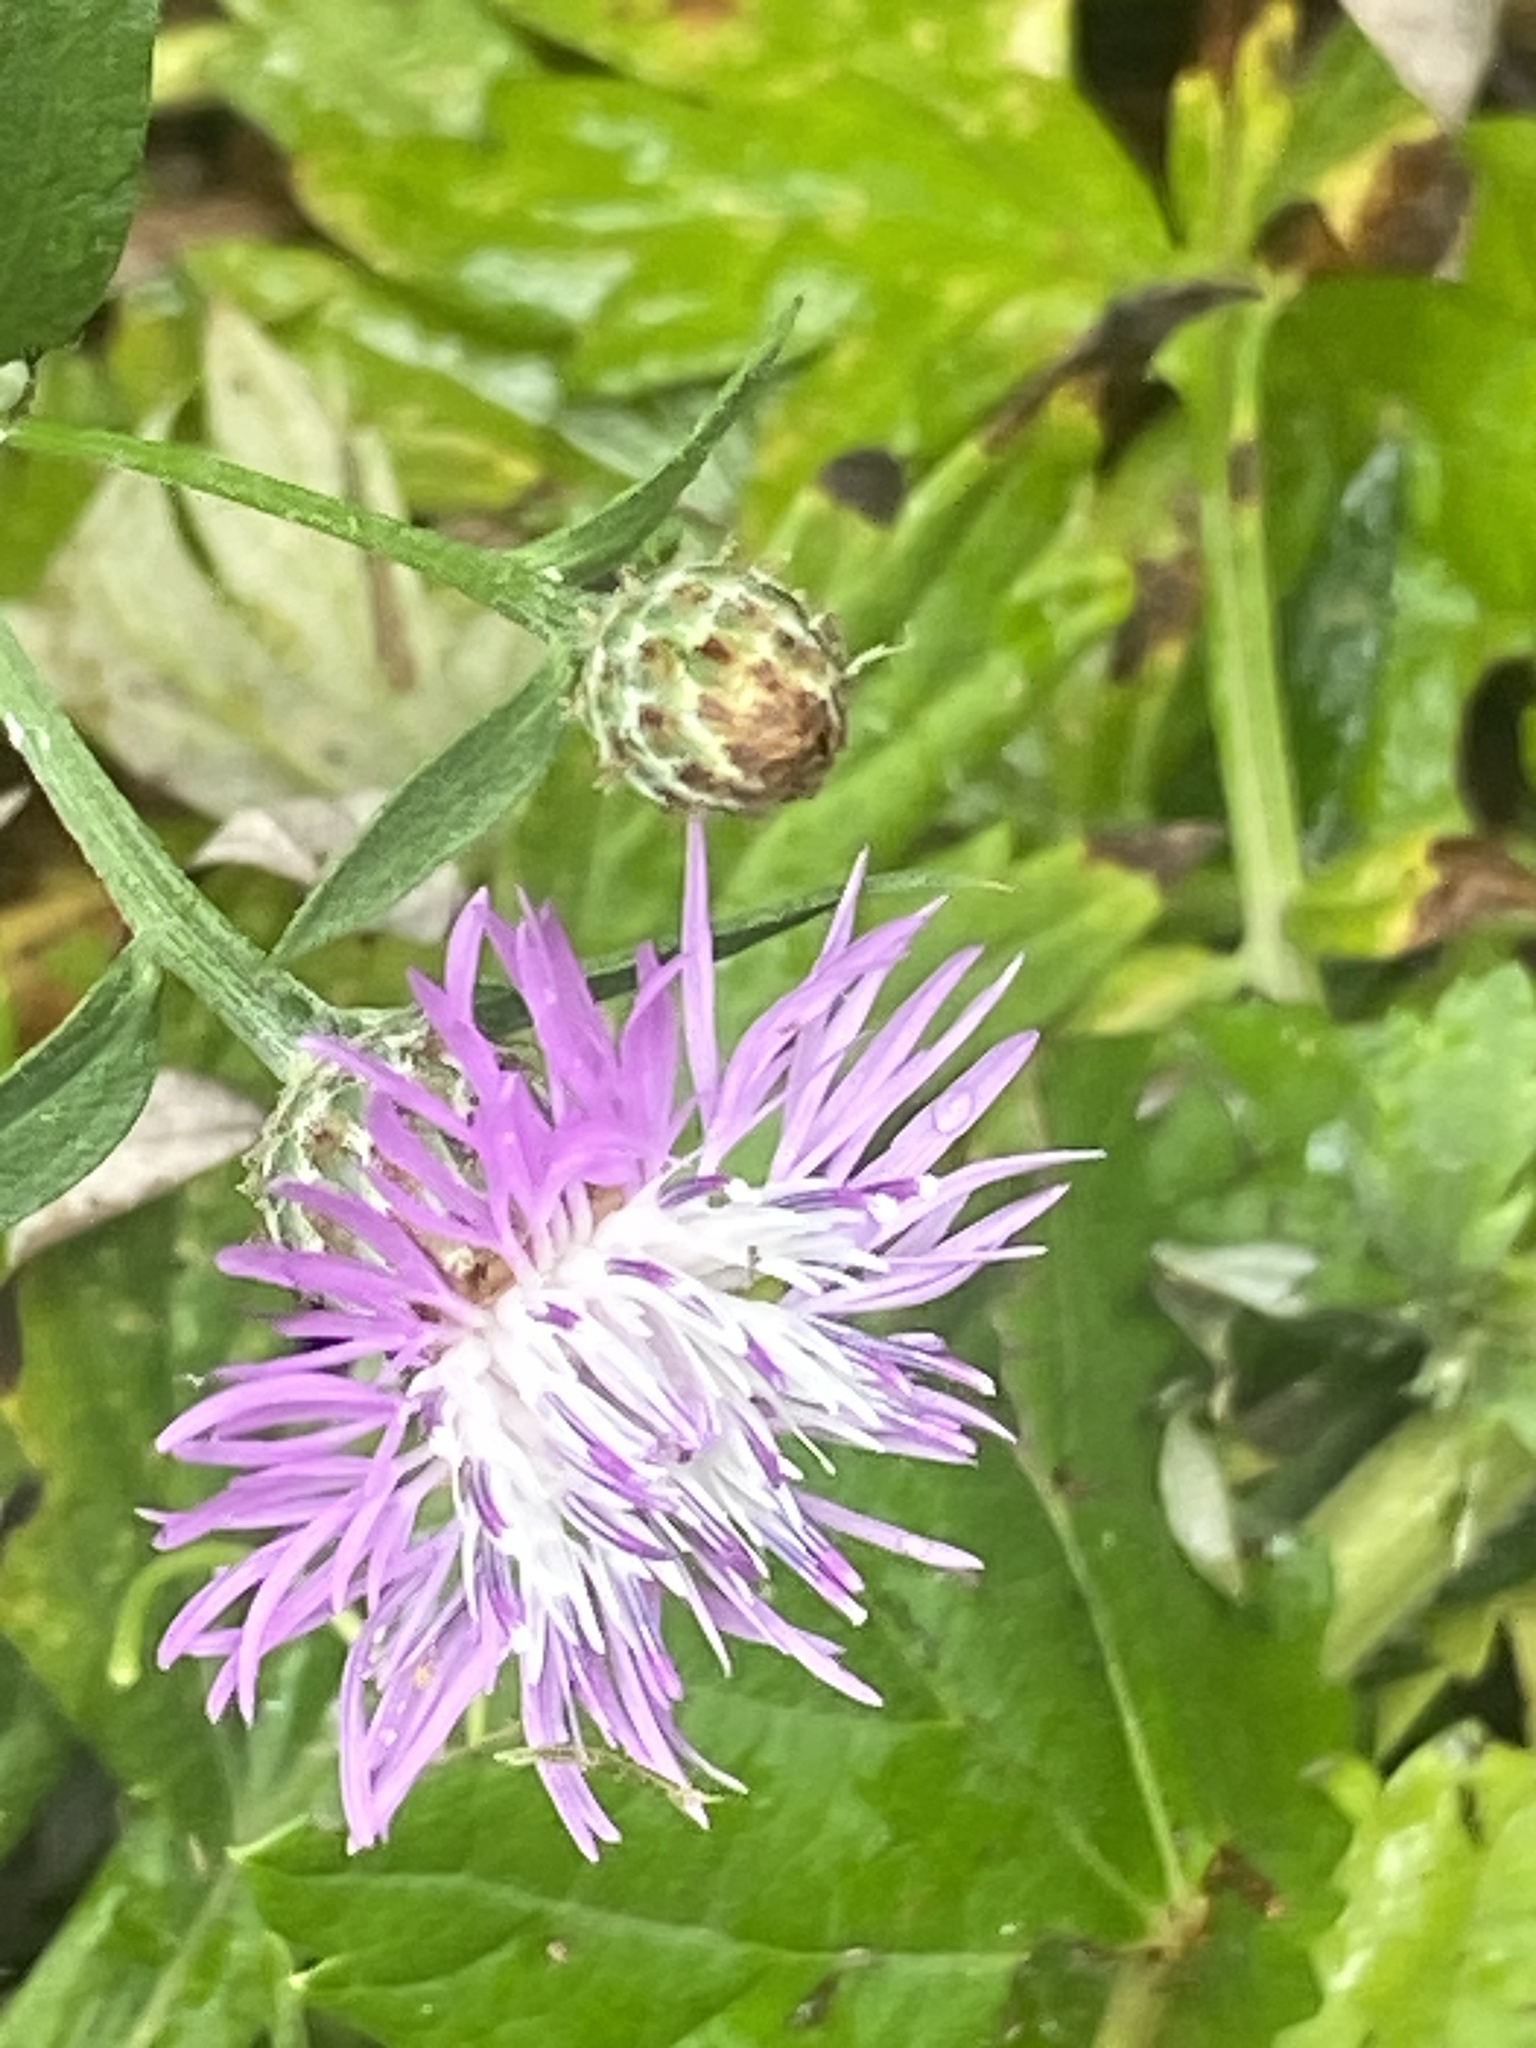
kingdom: Plantae
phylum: Tracheophyta
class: Magnoliopsida
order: Asterales
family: Asteraceae
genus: Centaurea
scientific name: Centaurea nigrescens
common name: Tyrol knapweed
